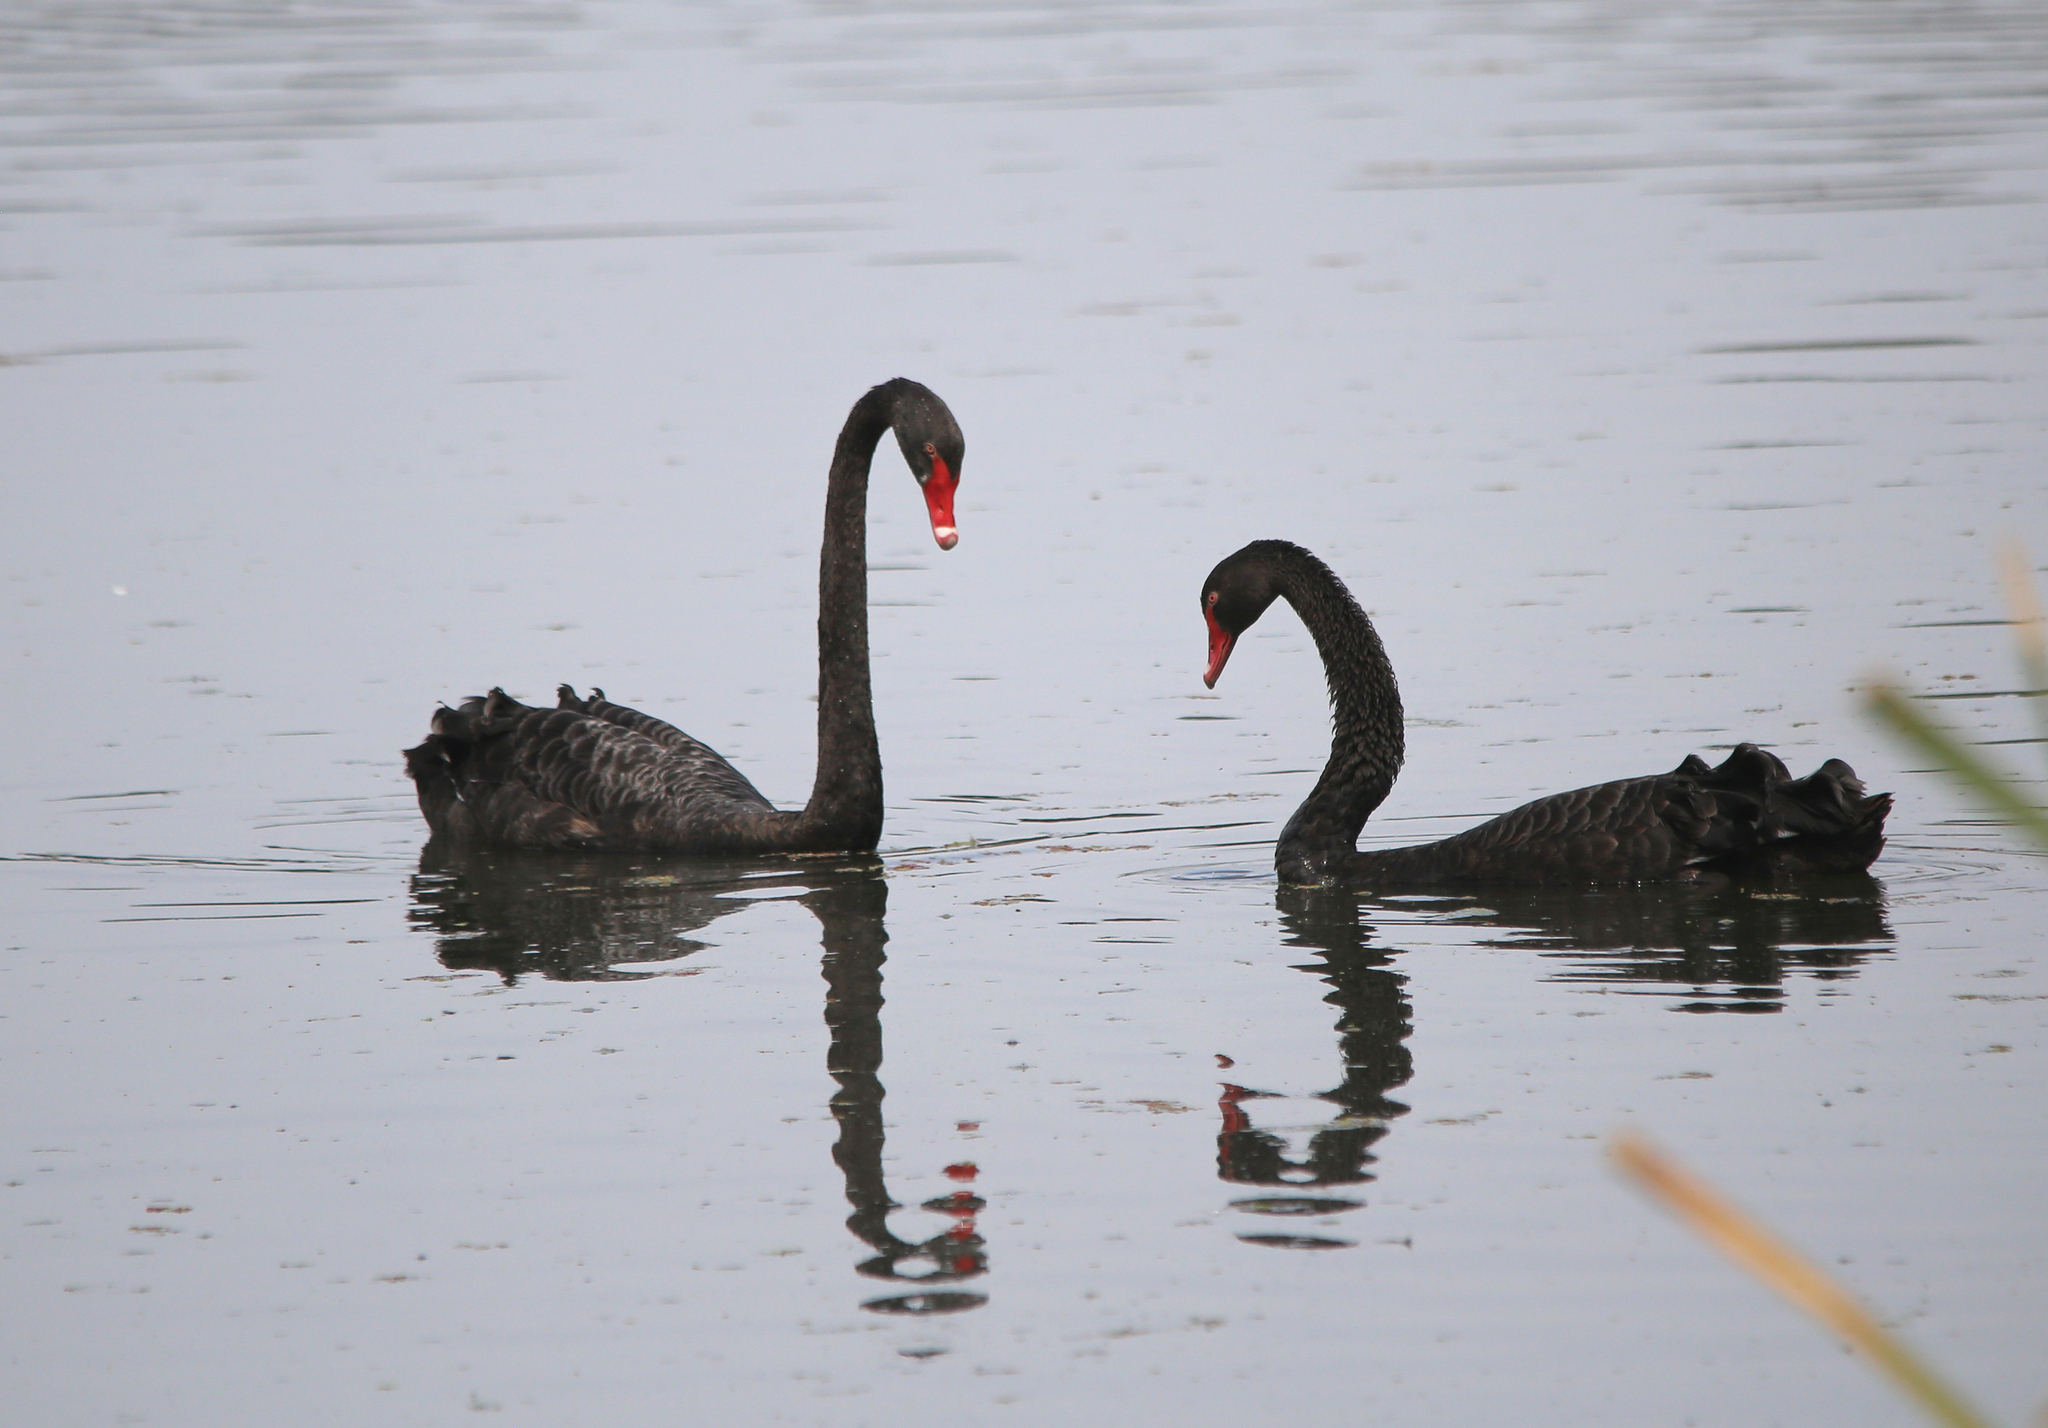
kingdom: Animalia
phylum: Chordata
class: Aves
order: Anseriformes
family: Anatidae
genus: Cygnus
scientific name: Cygnus atratus
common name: Black swan
